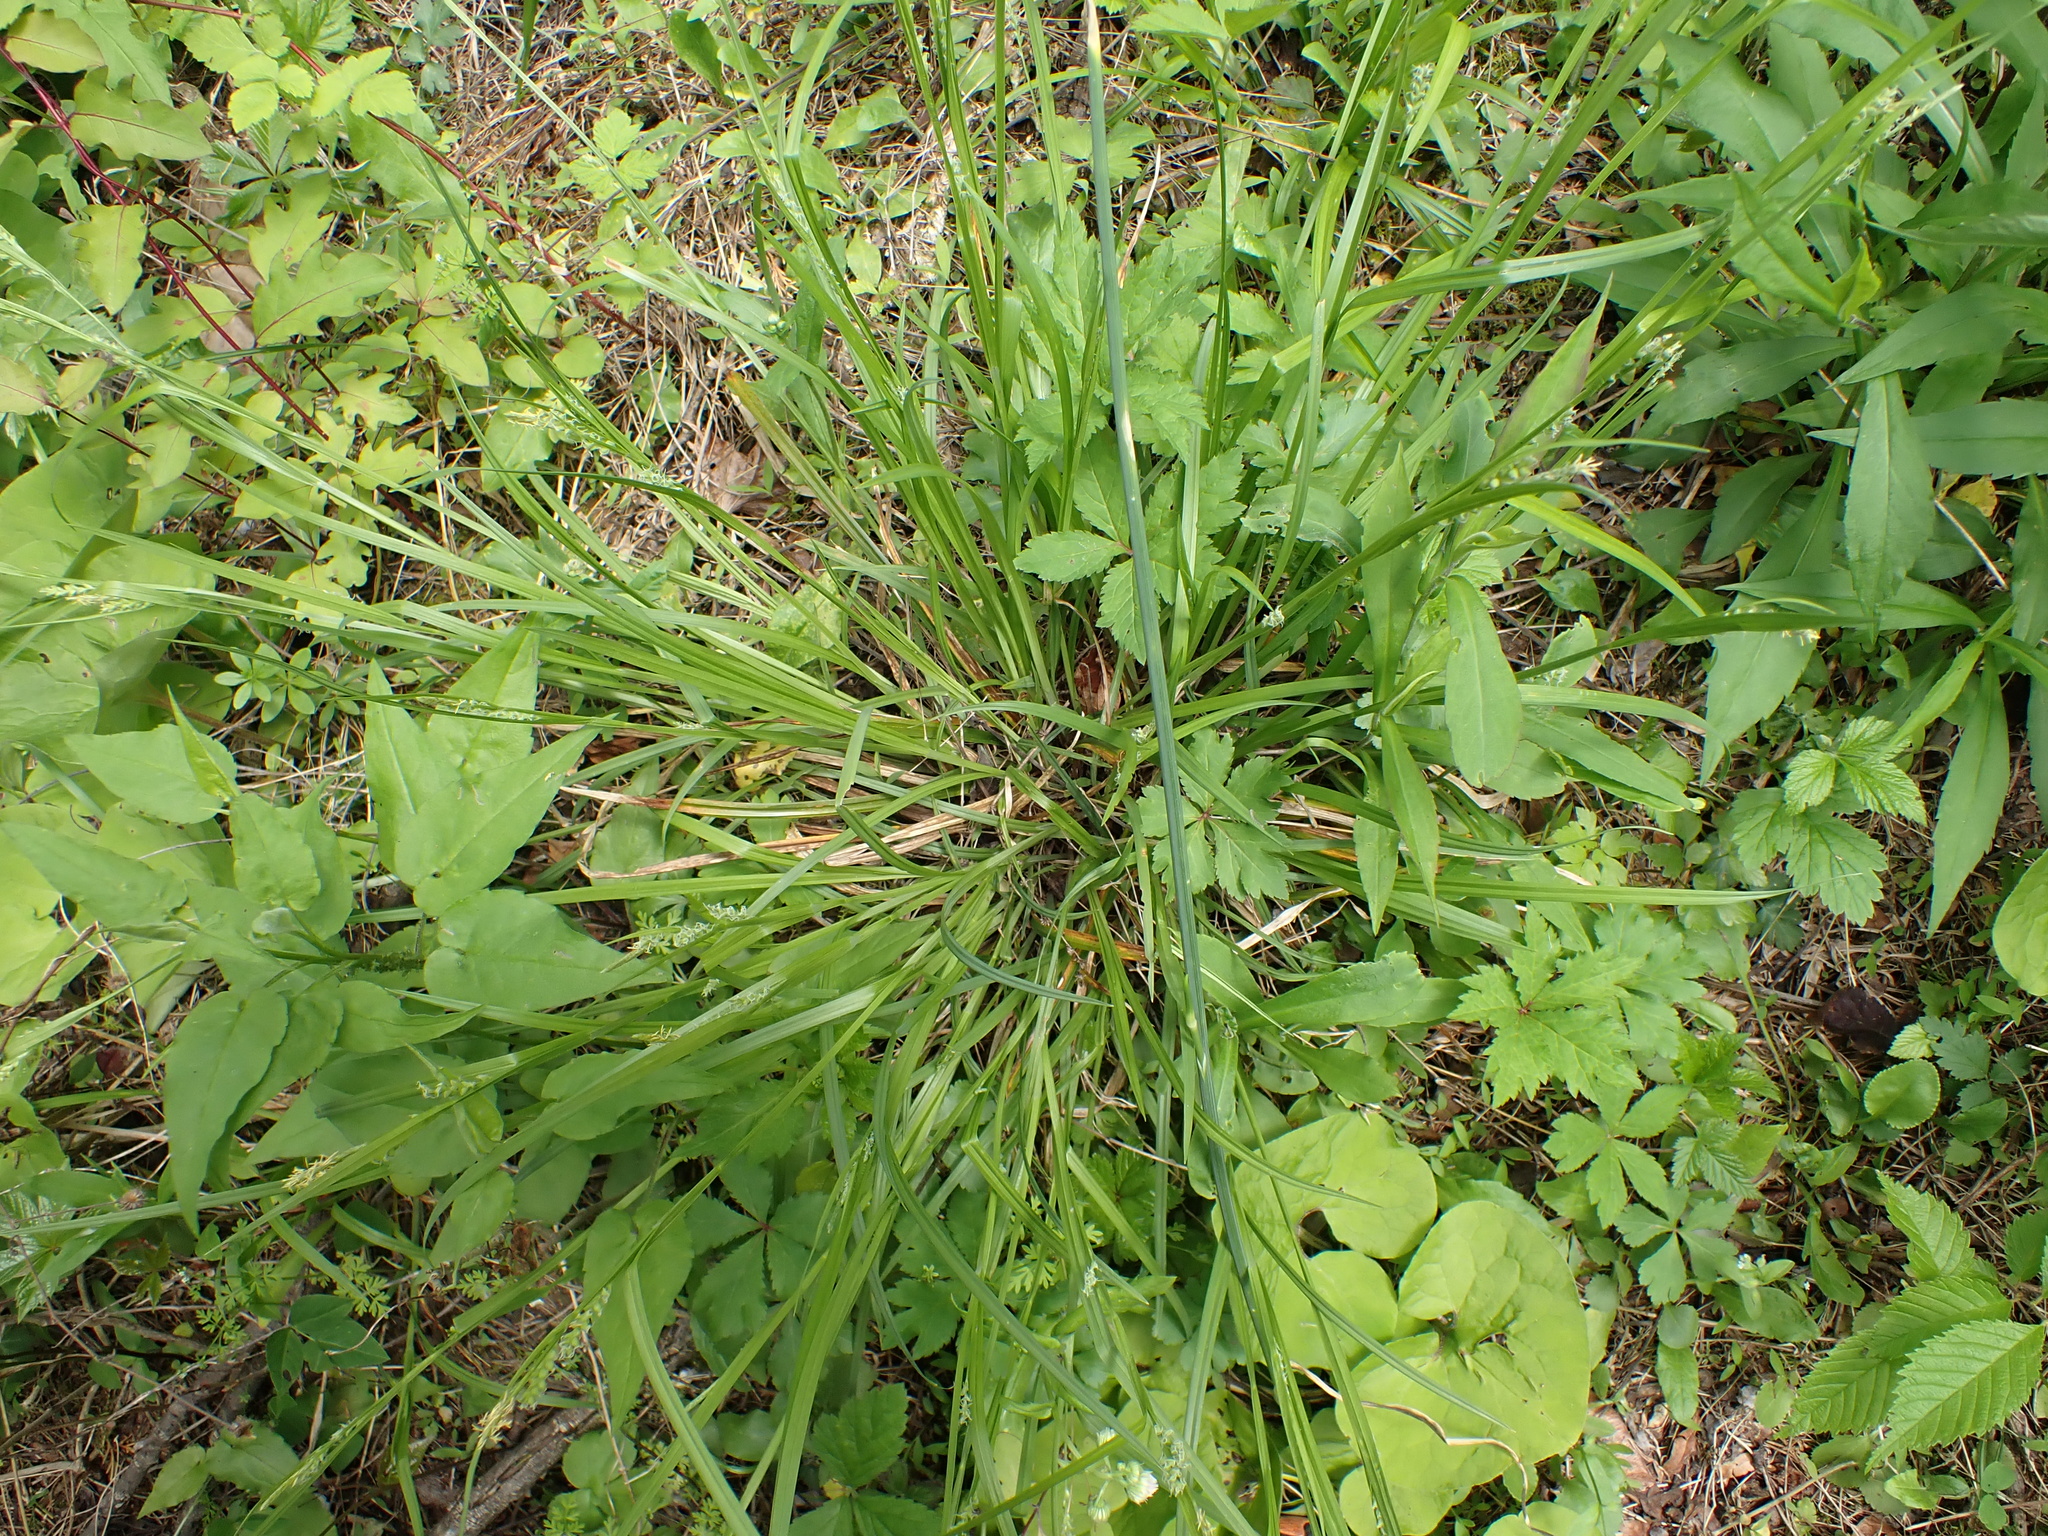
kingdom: Plantae
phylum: Tracheophyta
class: Liliopsida
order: Poales
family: Cyperaceae
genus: Carex
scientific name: Carex blanda
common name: Bland sedge
